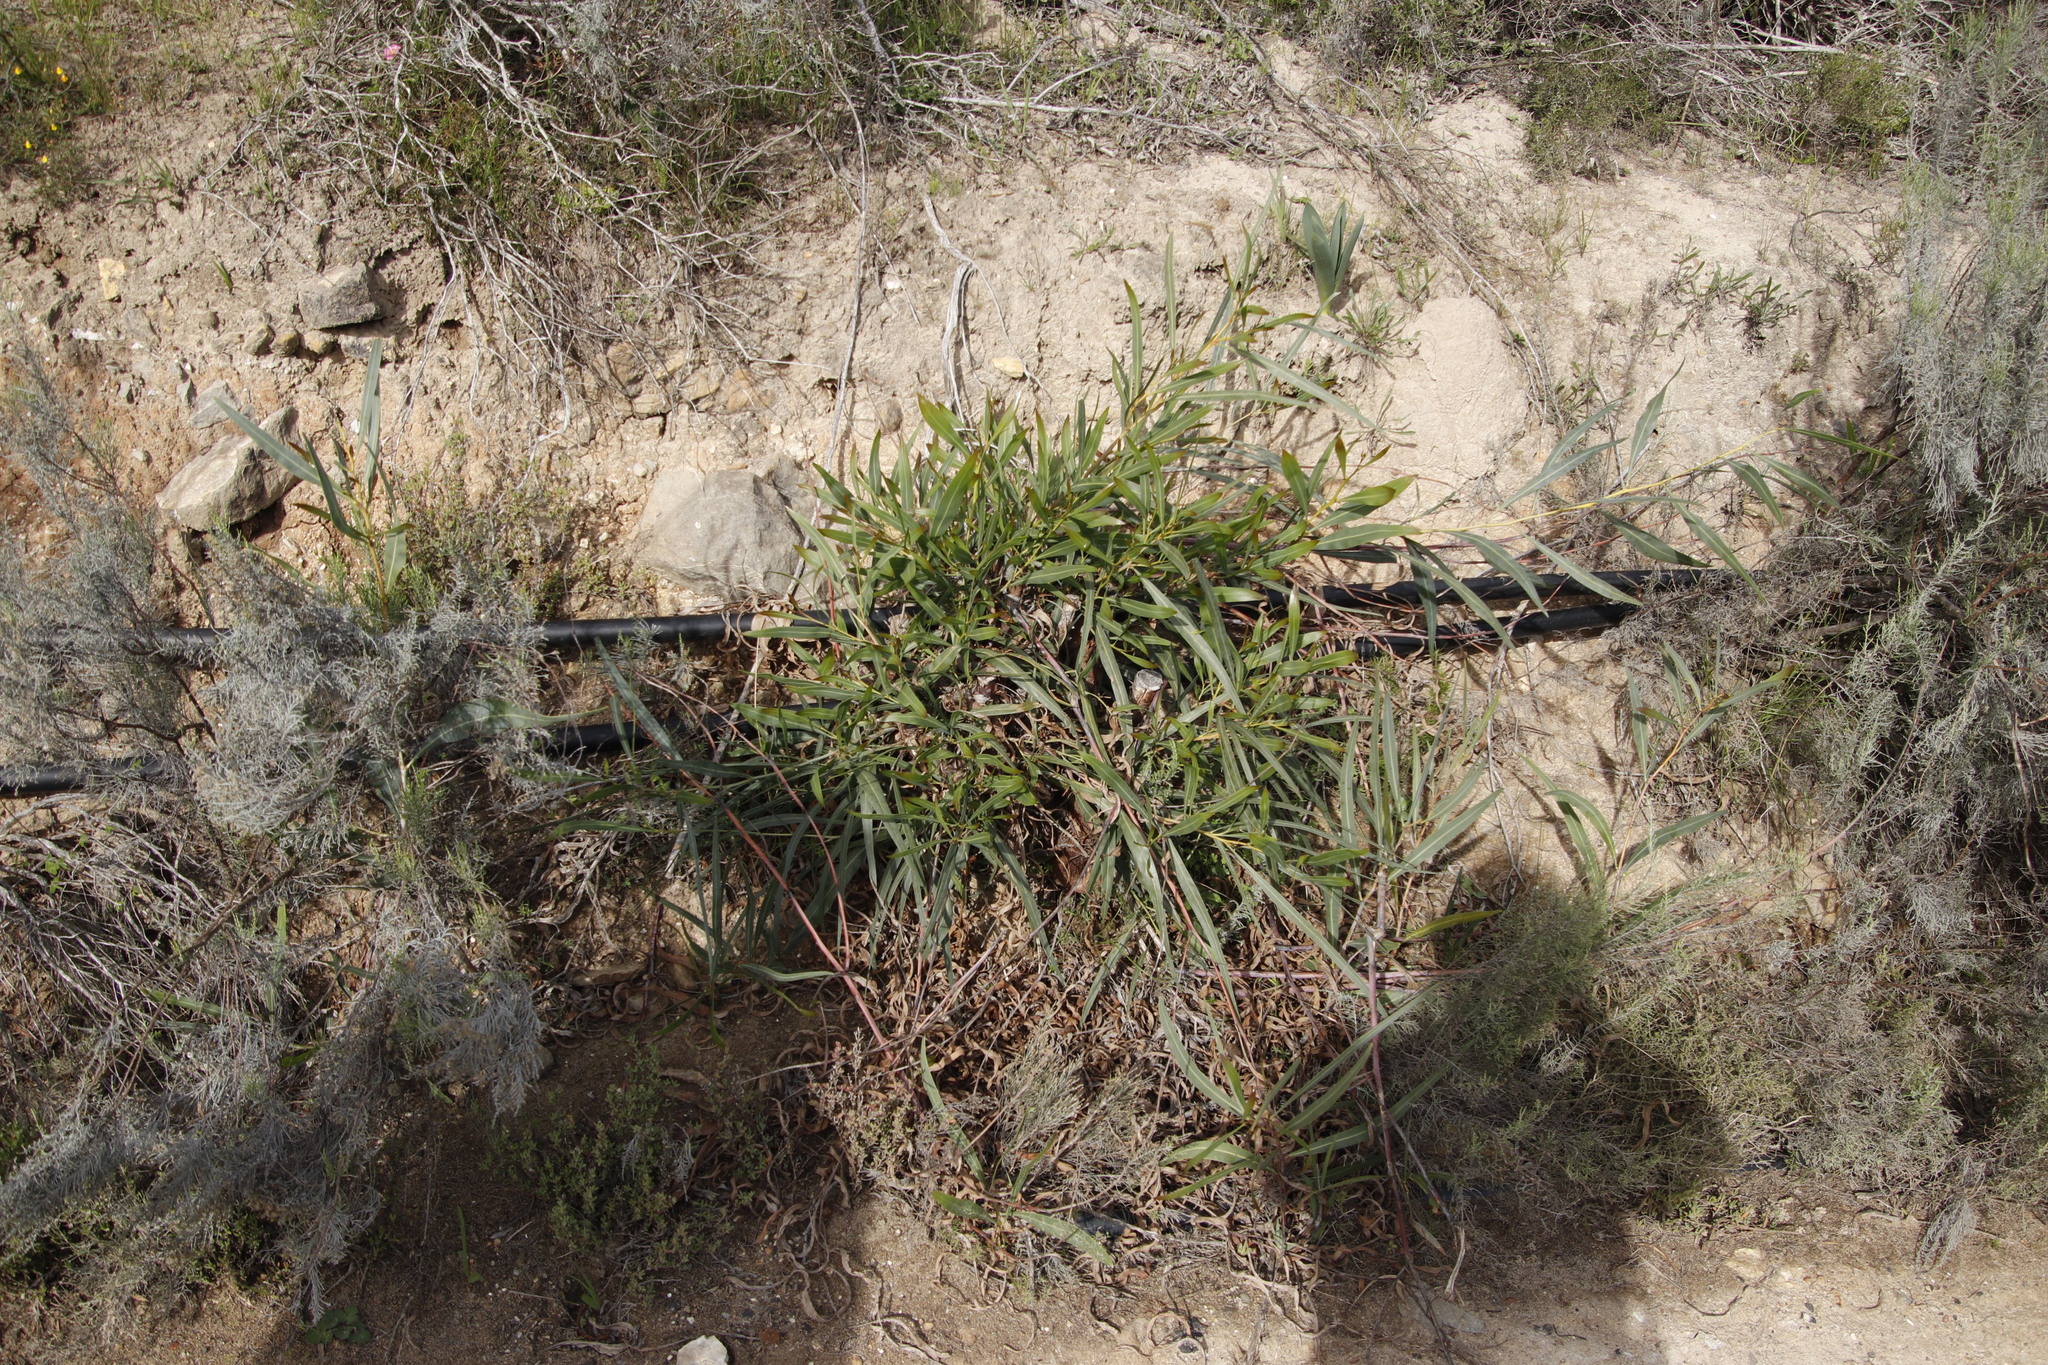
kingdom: Plantae
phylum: Tracheophyta
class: Magnoliopsida
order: Fabales
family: Fabaceae
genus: Acacia
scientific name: Acacia saligna
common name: Orange wattle
